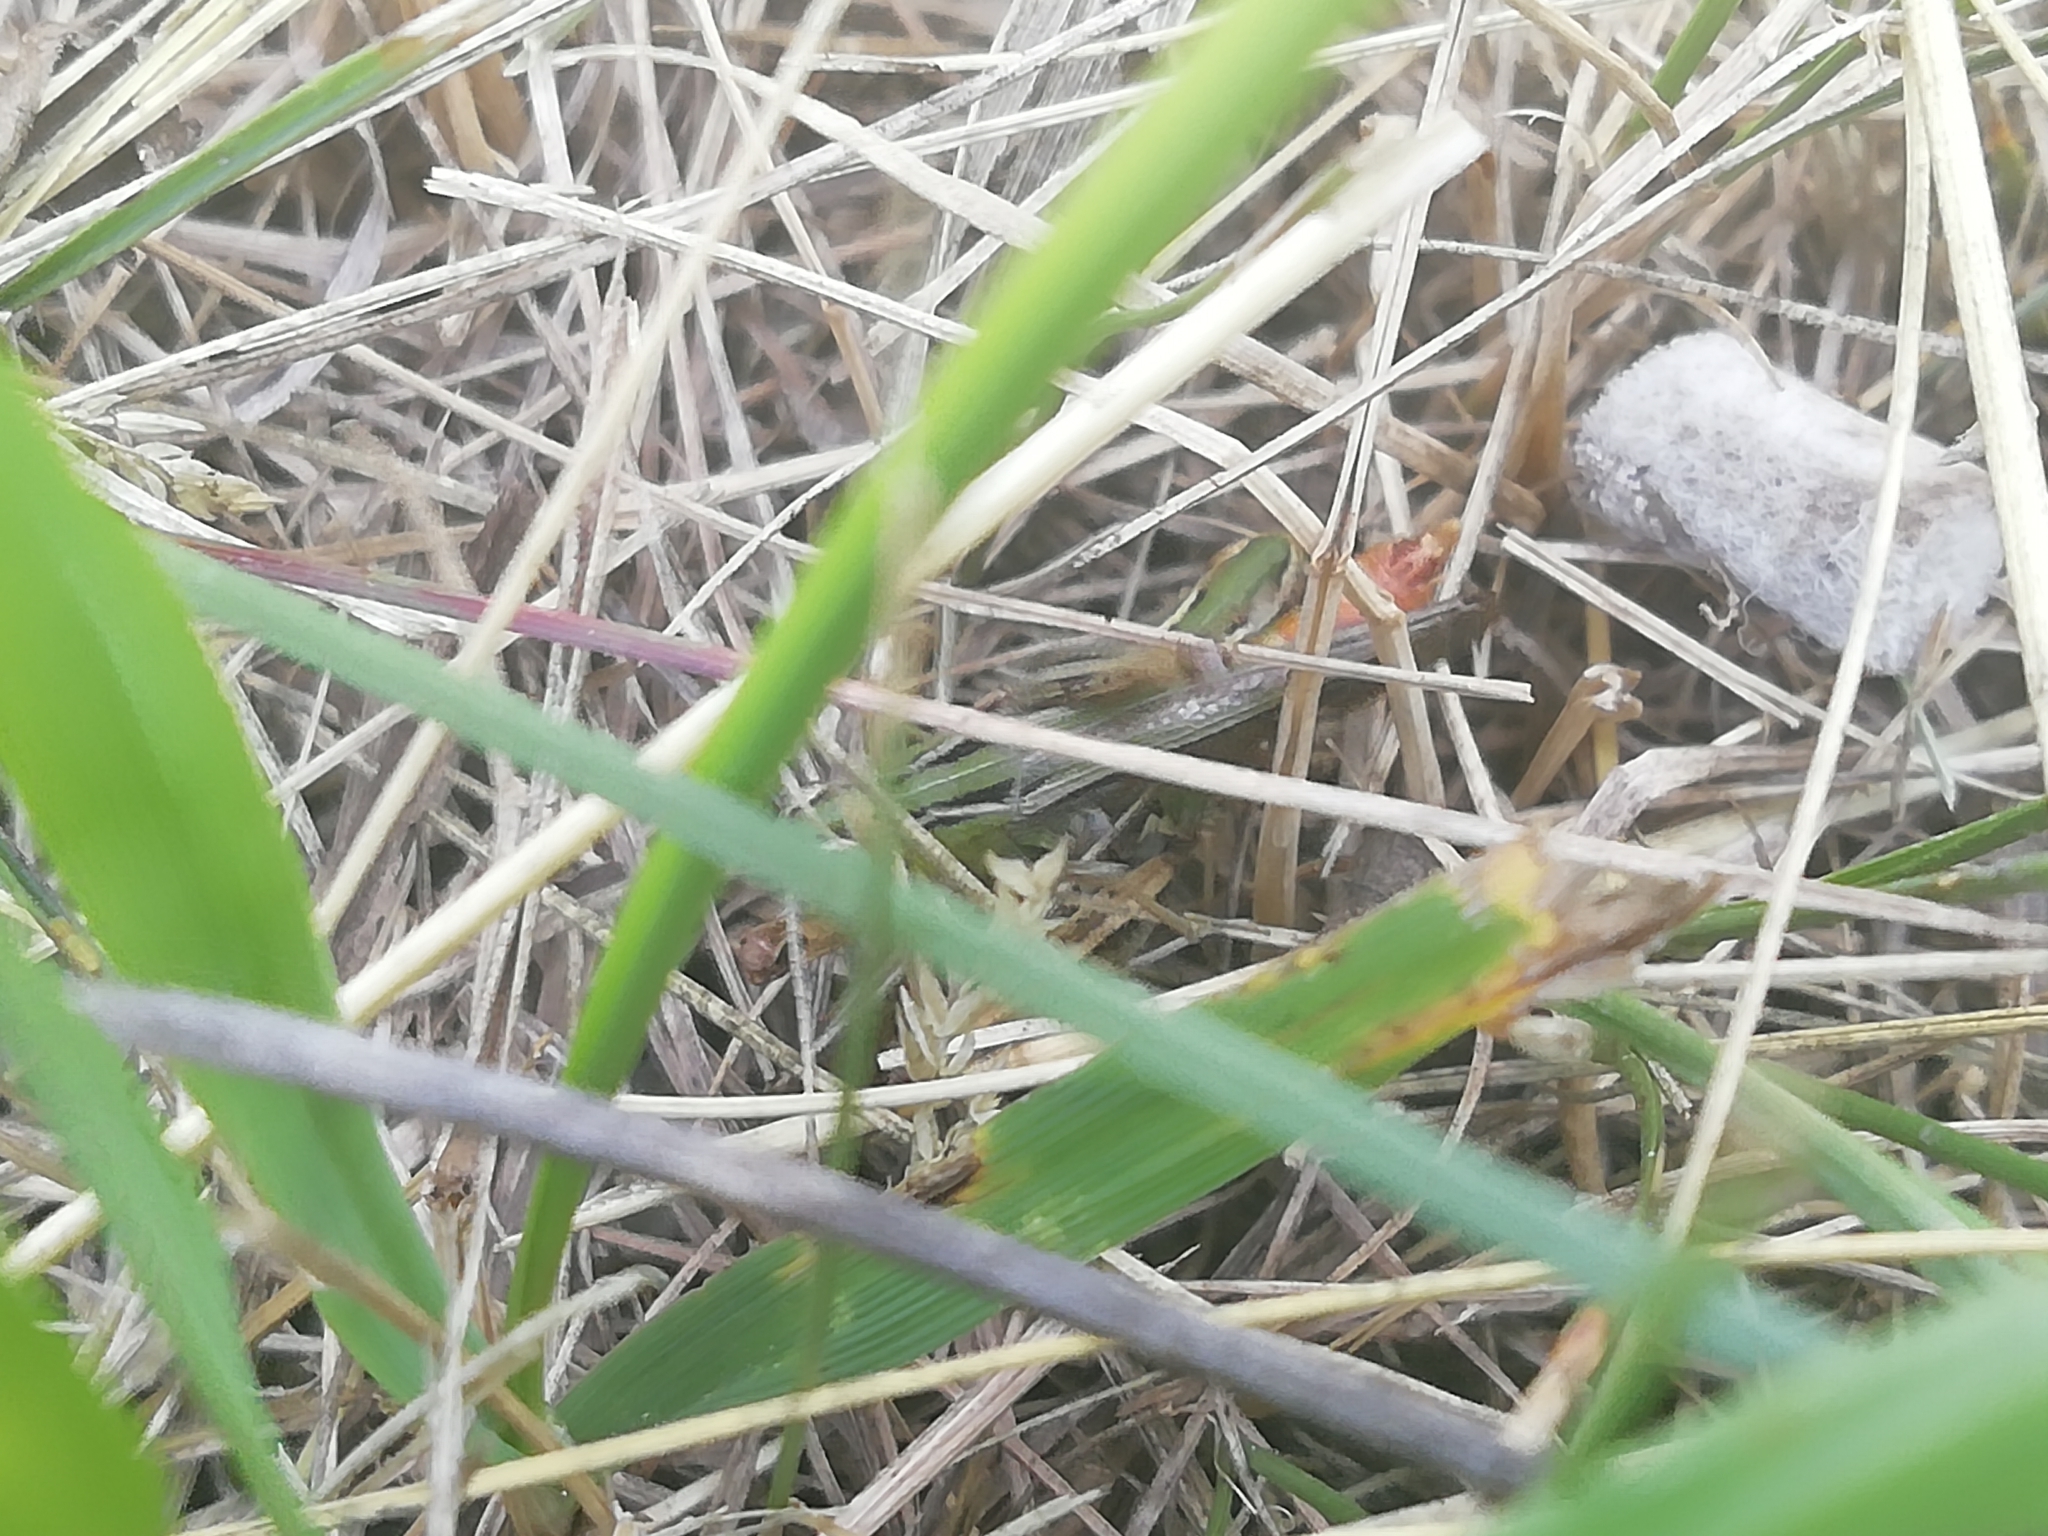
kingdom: Animalia
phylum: Arthropoda
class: Insecta
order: Orthoptera
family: Acrididae
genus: Stenobothrus
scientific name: Stenobothrus lineatus
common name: Stripe-winged grasshopper
